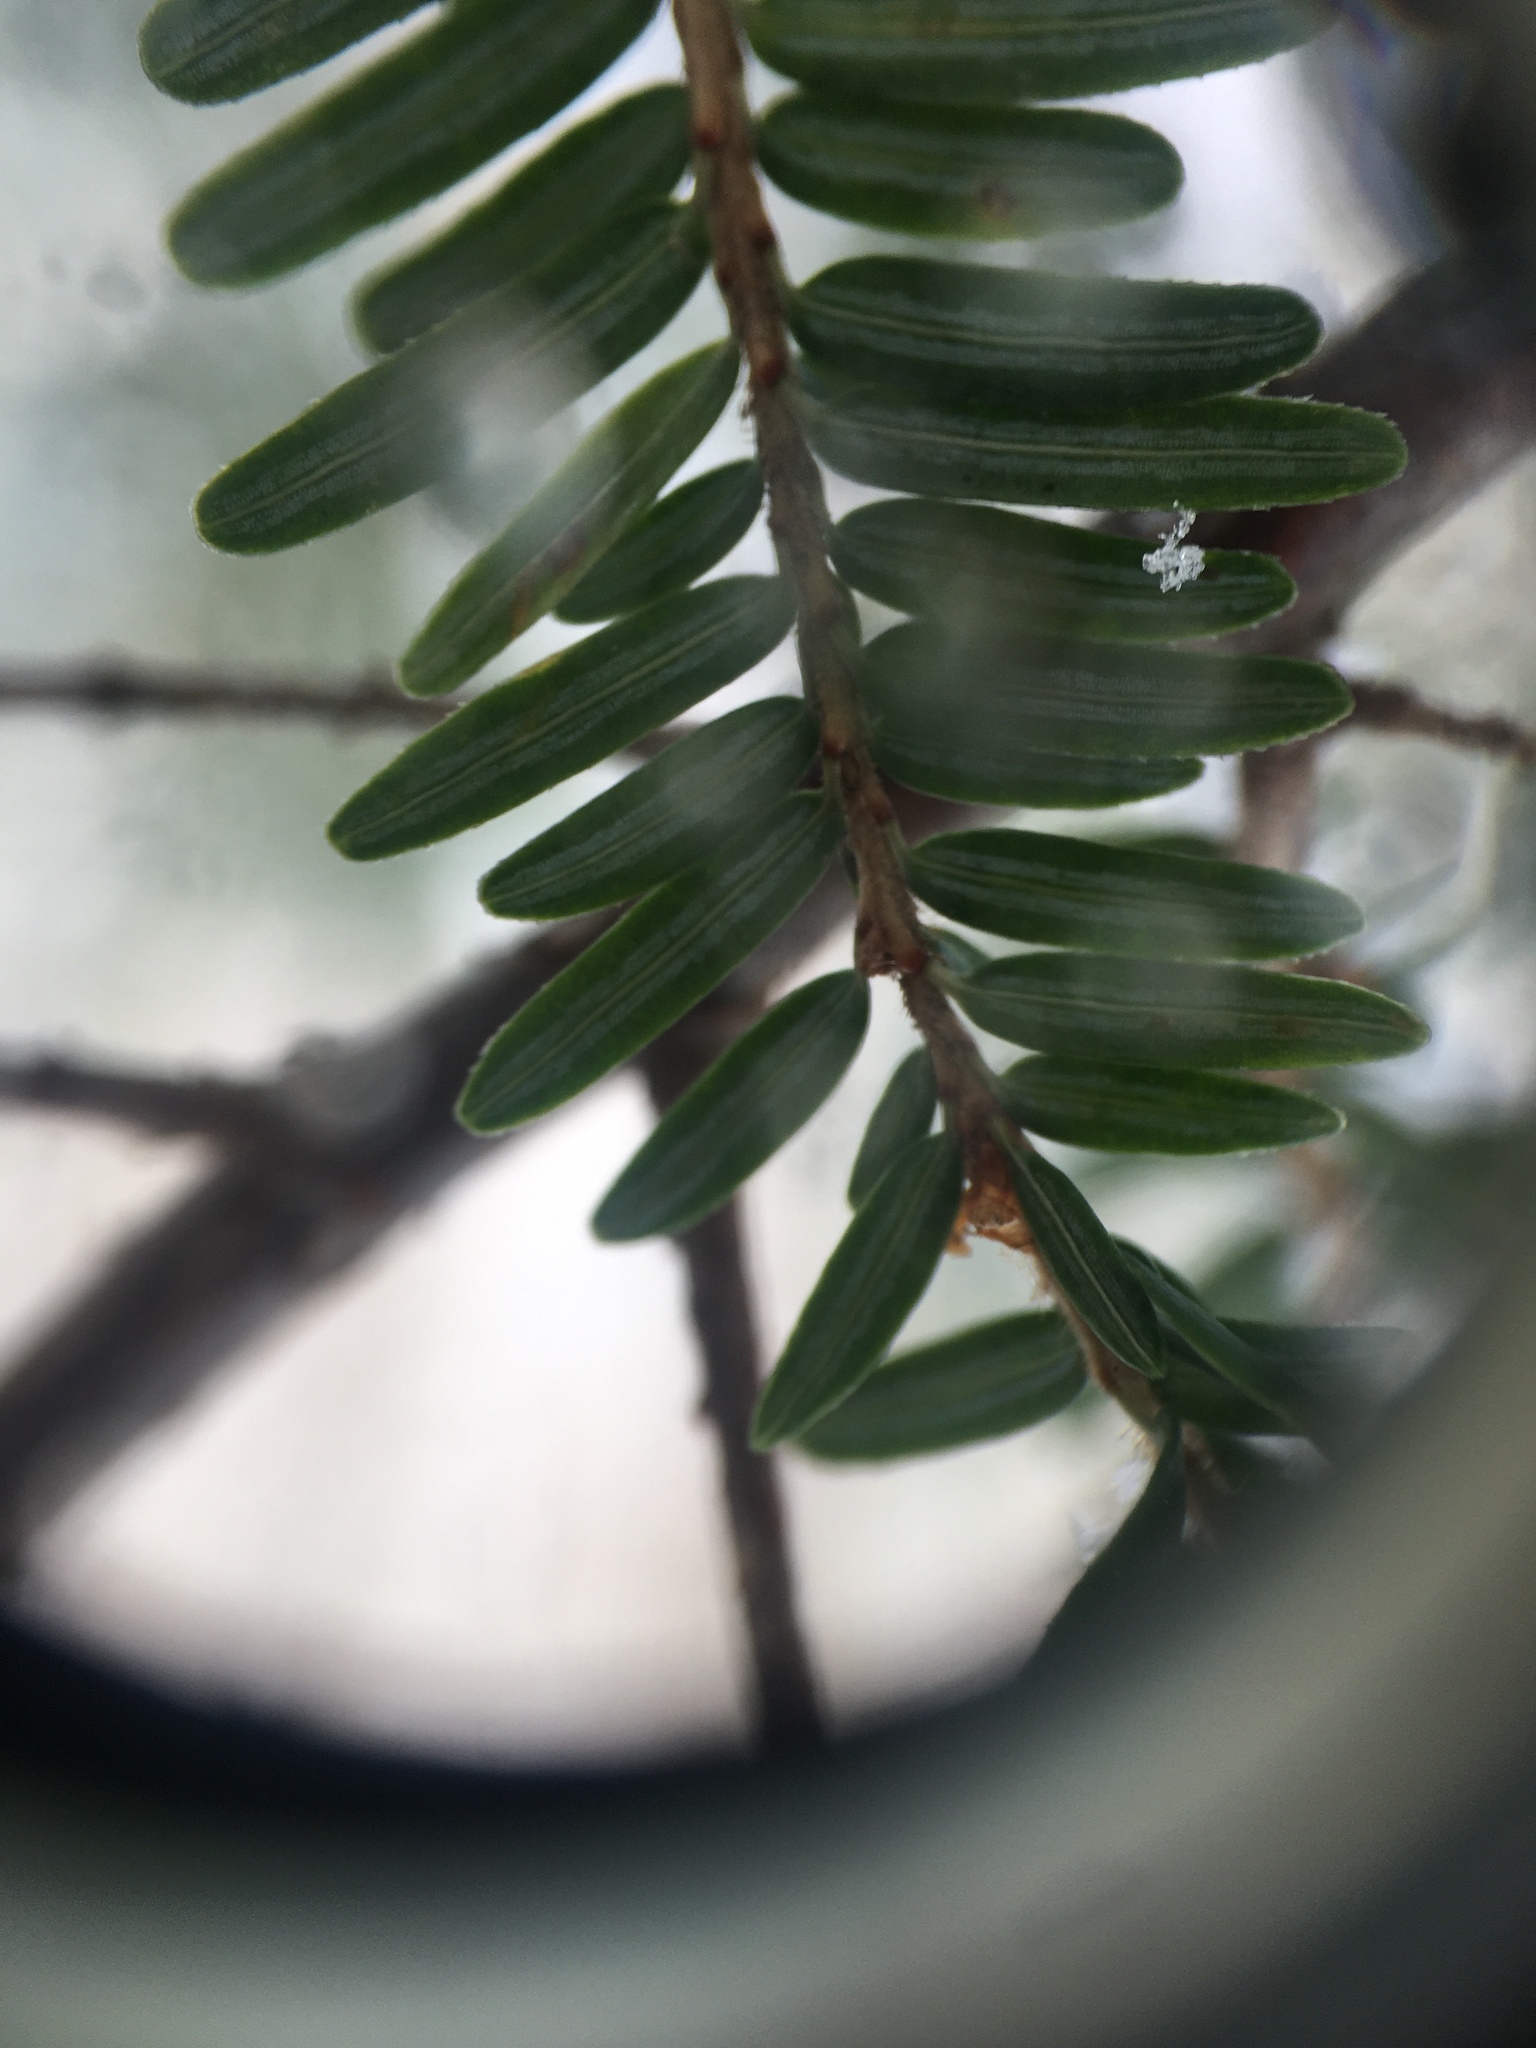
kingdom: Plantae
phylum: Tracheophyta
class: Pinopsida
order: Pinales
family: Pinaceae
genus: Tsuga
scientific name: Tsuga canadensis
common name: Eastern hemlock
